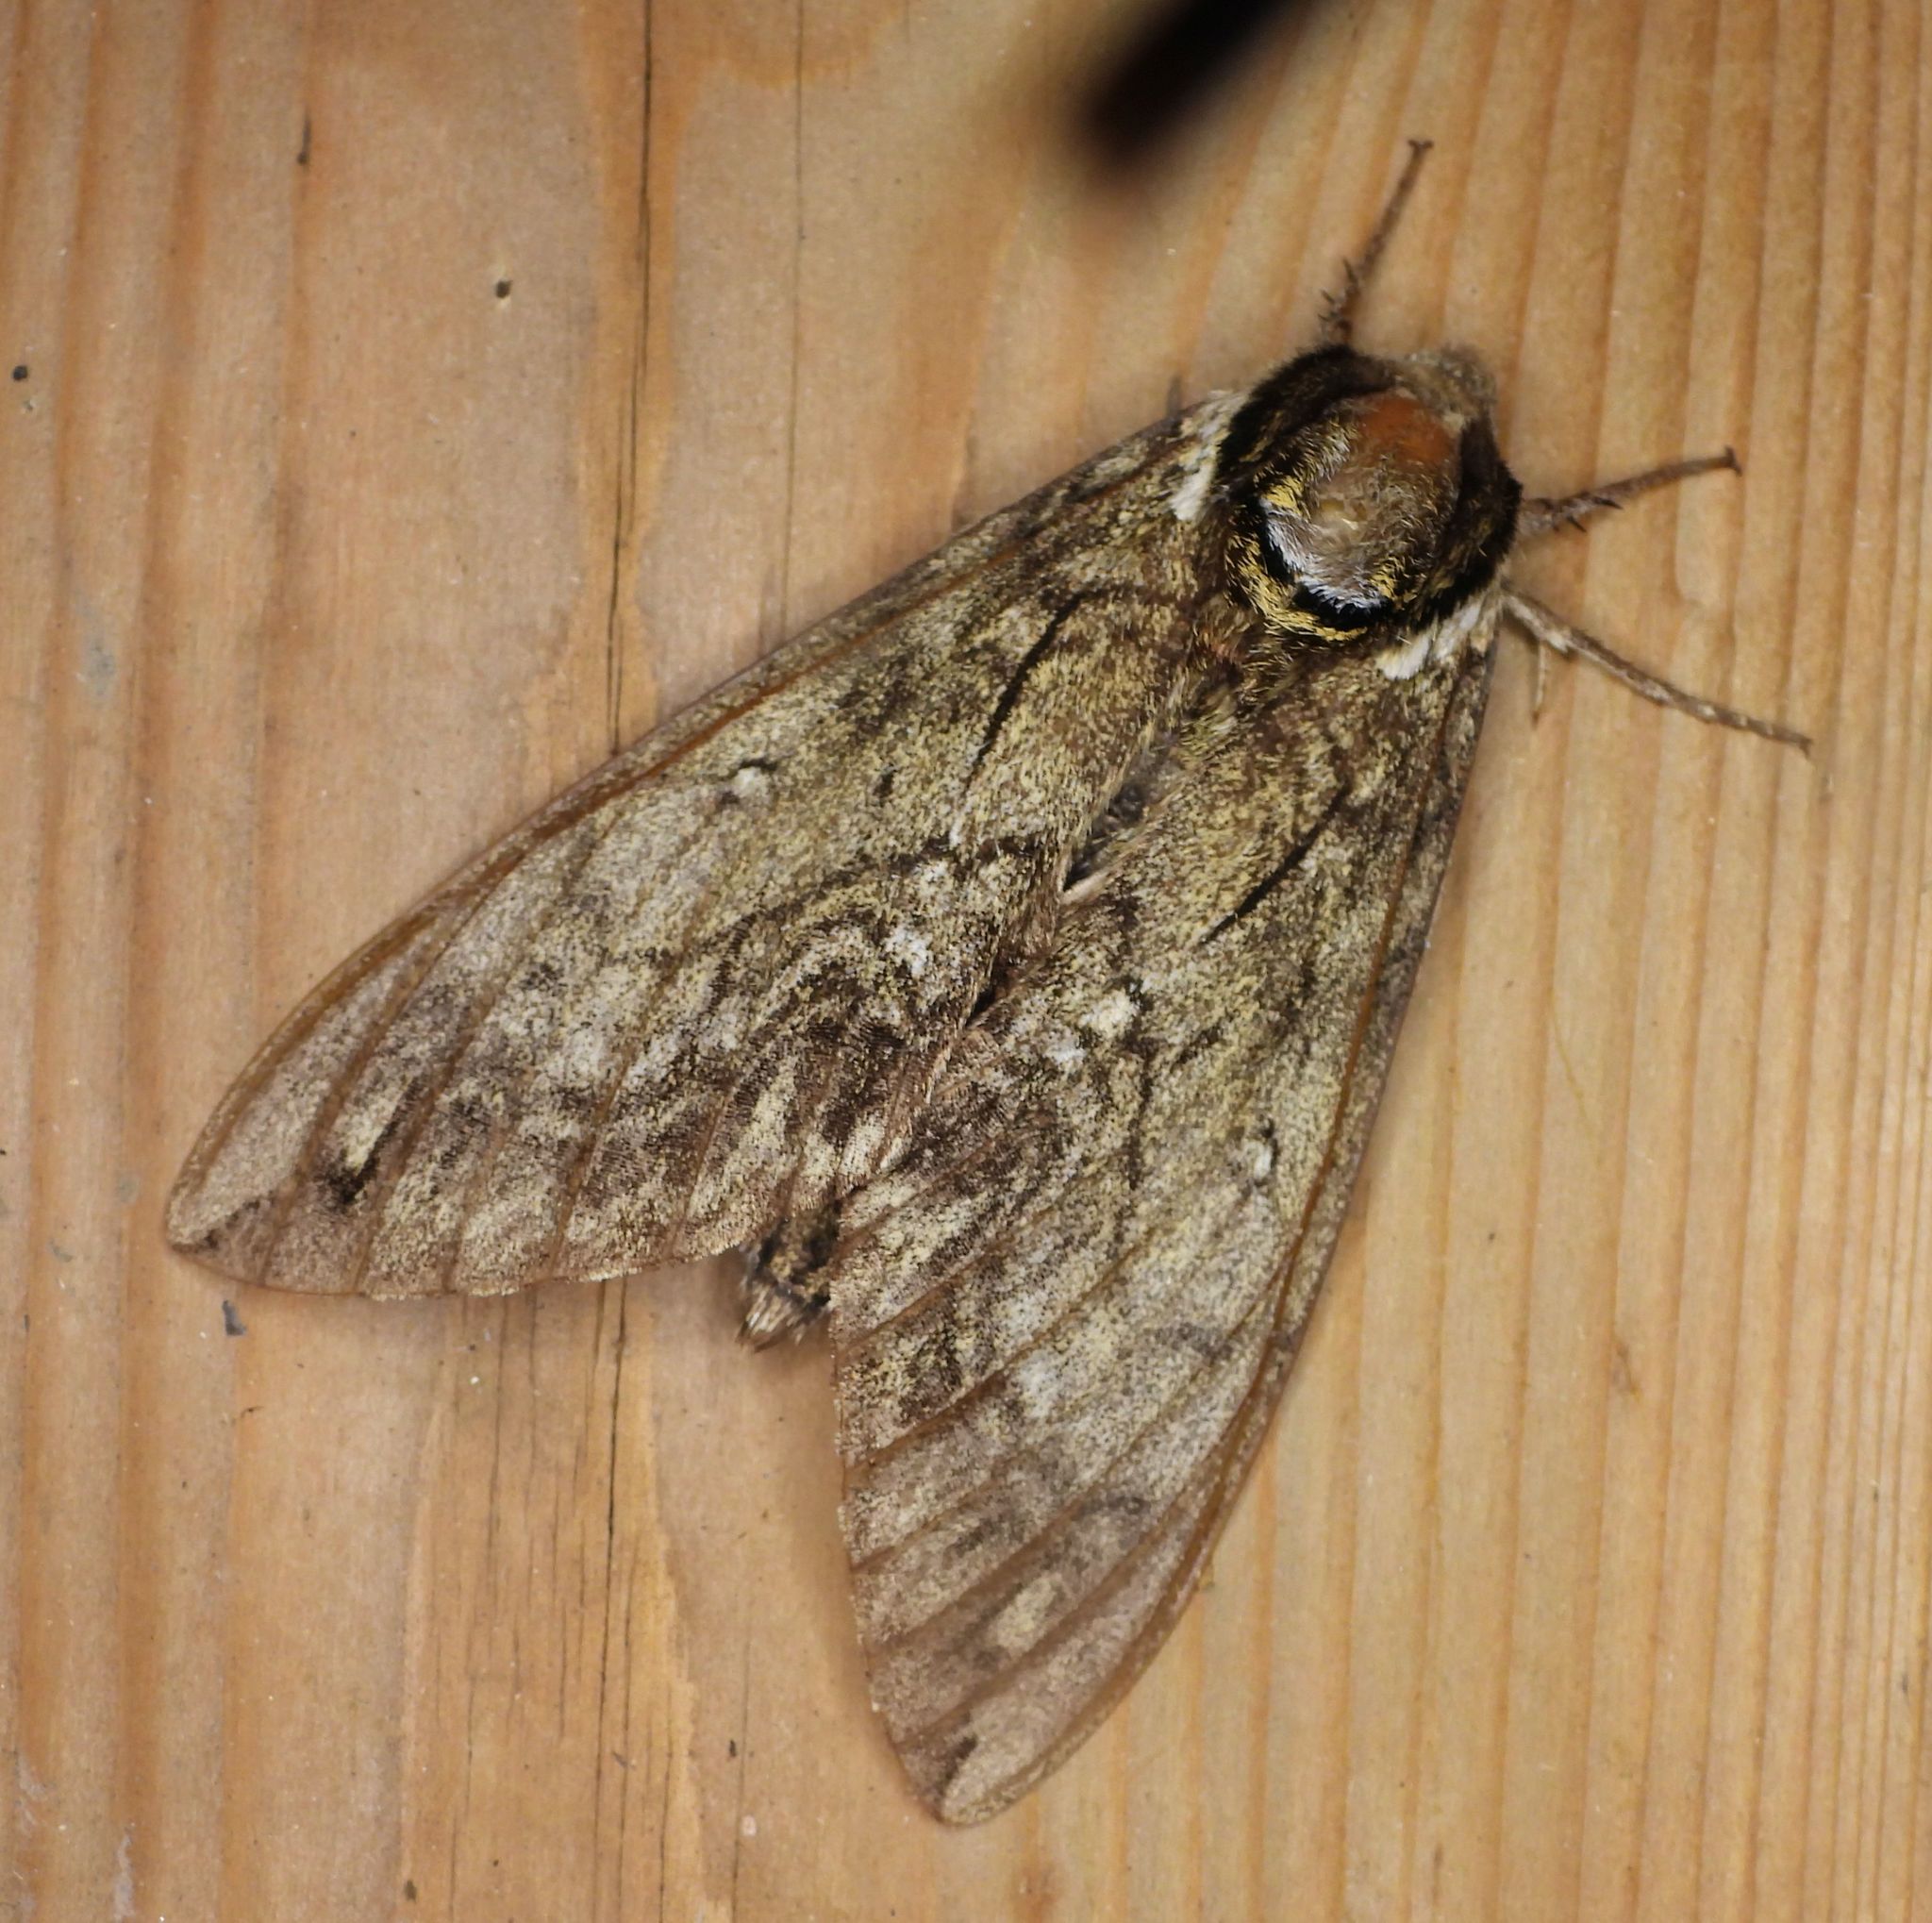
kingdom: Animalia
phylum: Arthropoda
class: Insecta
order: Lepidoptera
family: Sphingidae
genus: Ceratomia
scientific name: Ceratomia undulosa
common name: Waved sphinx
